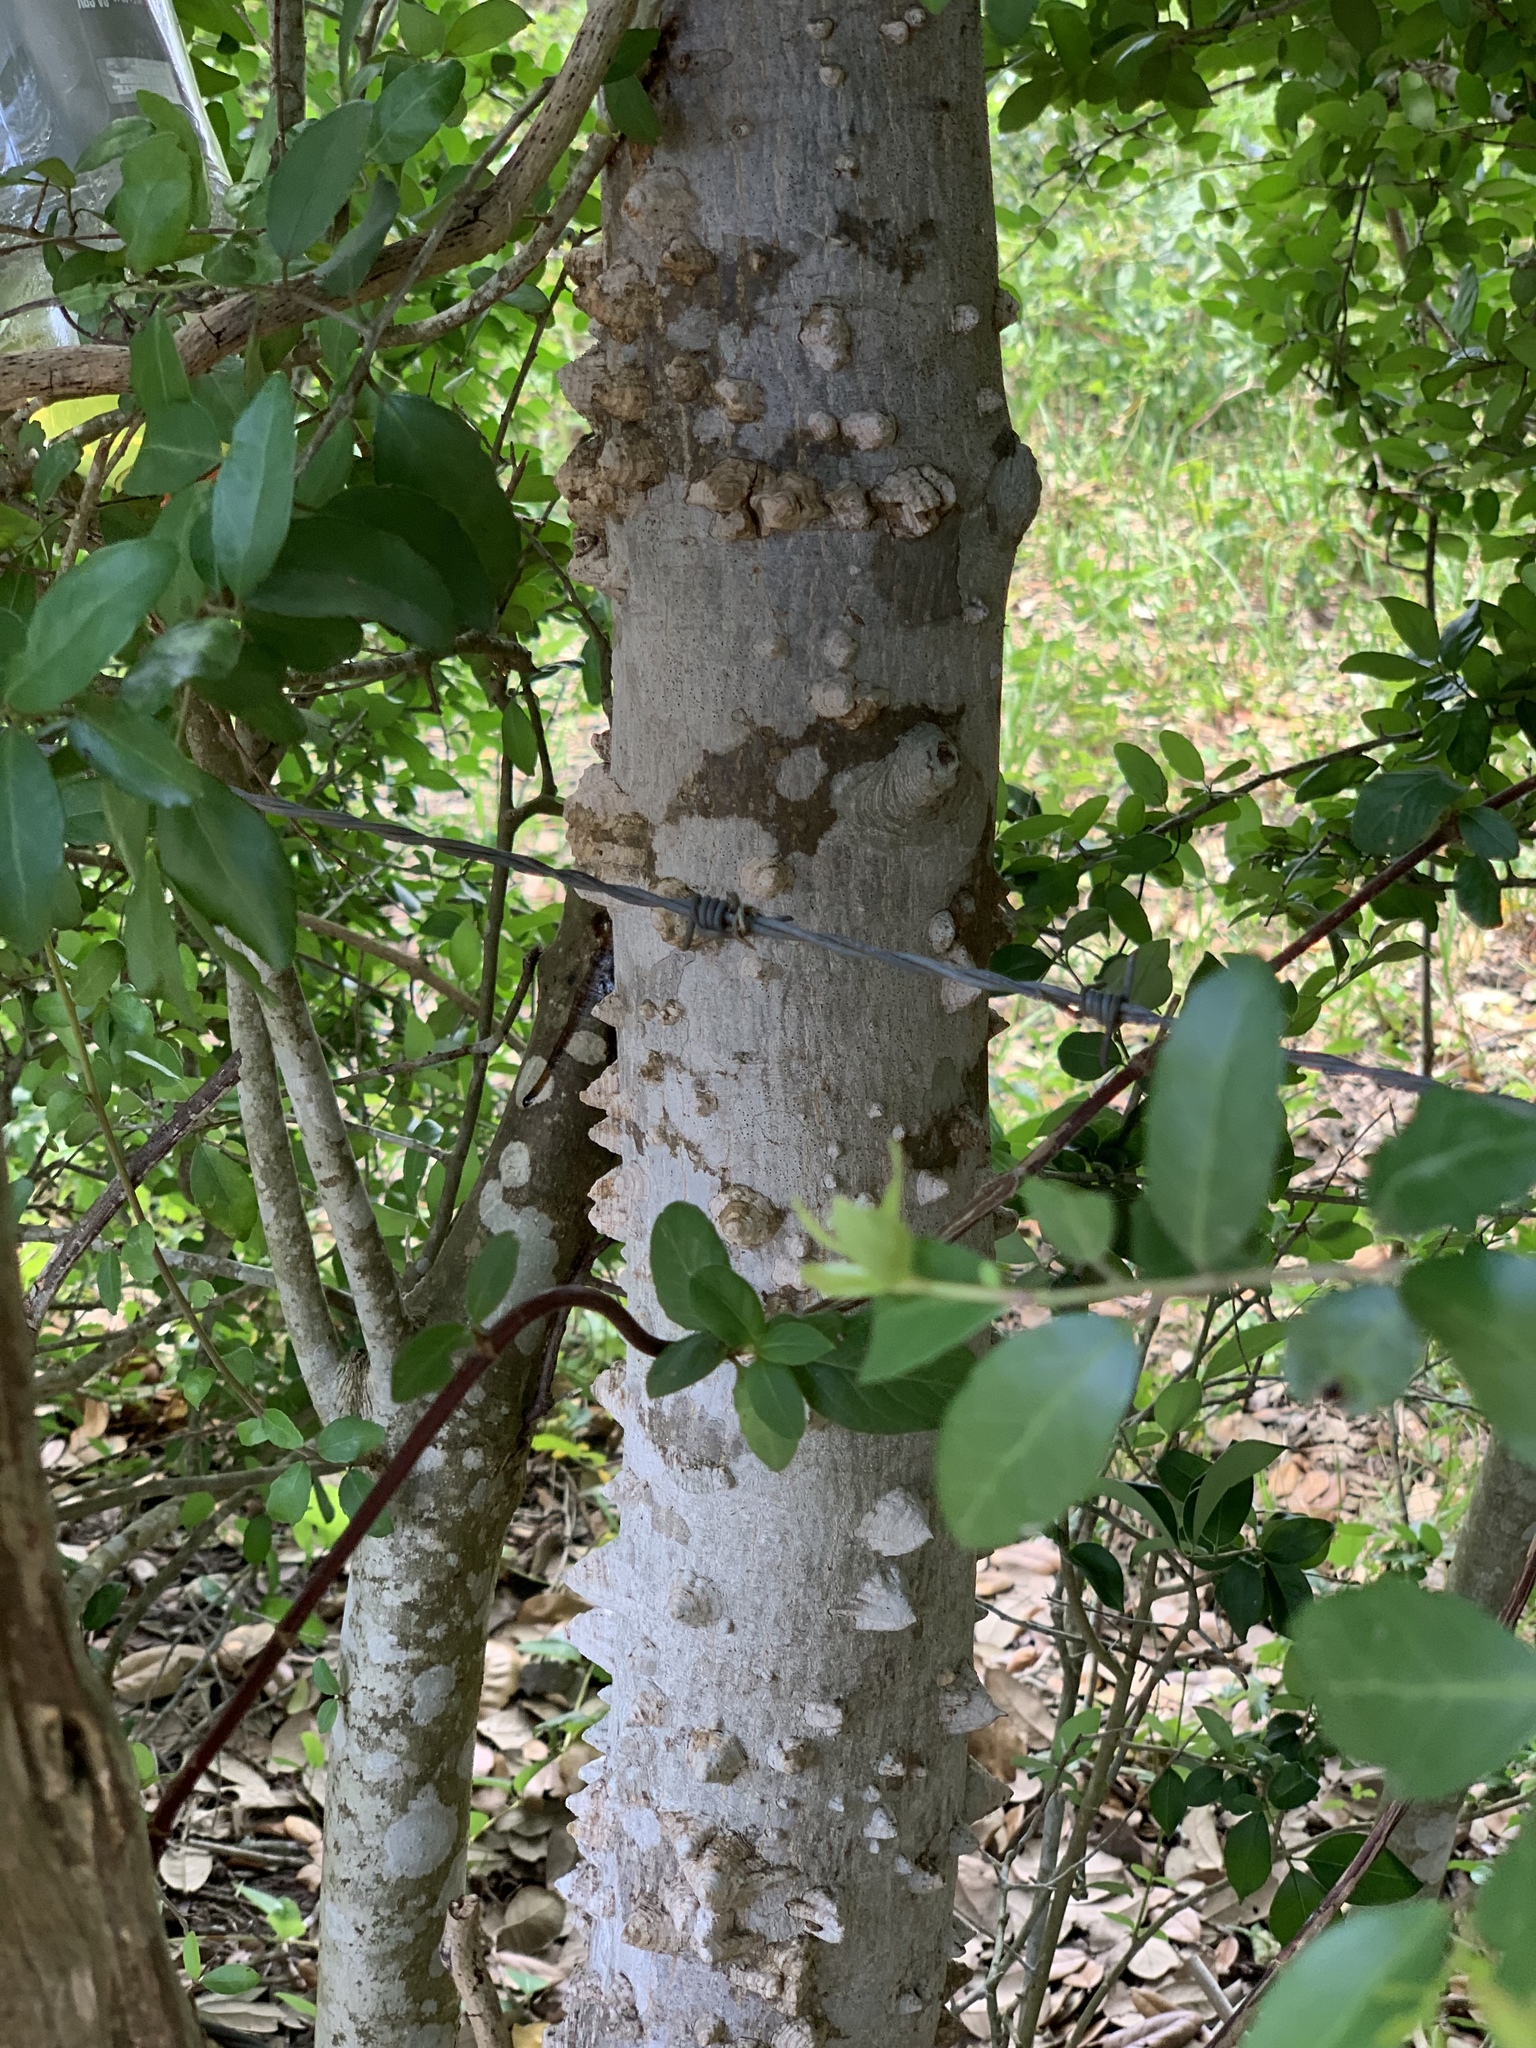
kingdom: Plantae
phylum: Tracheophyta
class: Magnoliopsida
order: Sapindales
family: Rutaceae
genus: Zanthoxylum
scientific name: Zanthoxylum clava-herculis
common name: Hercules'-club
